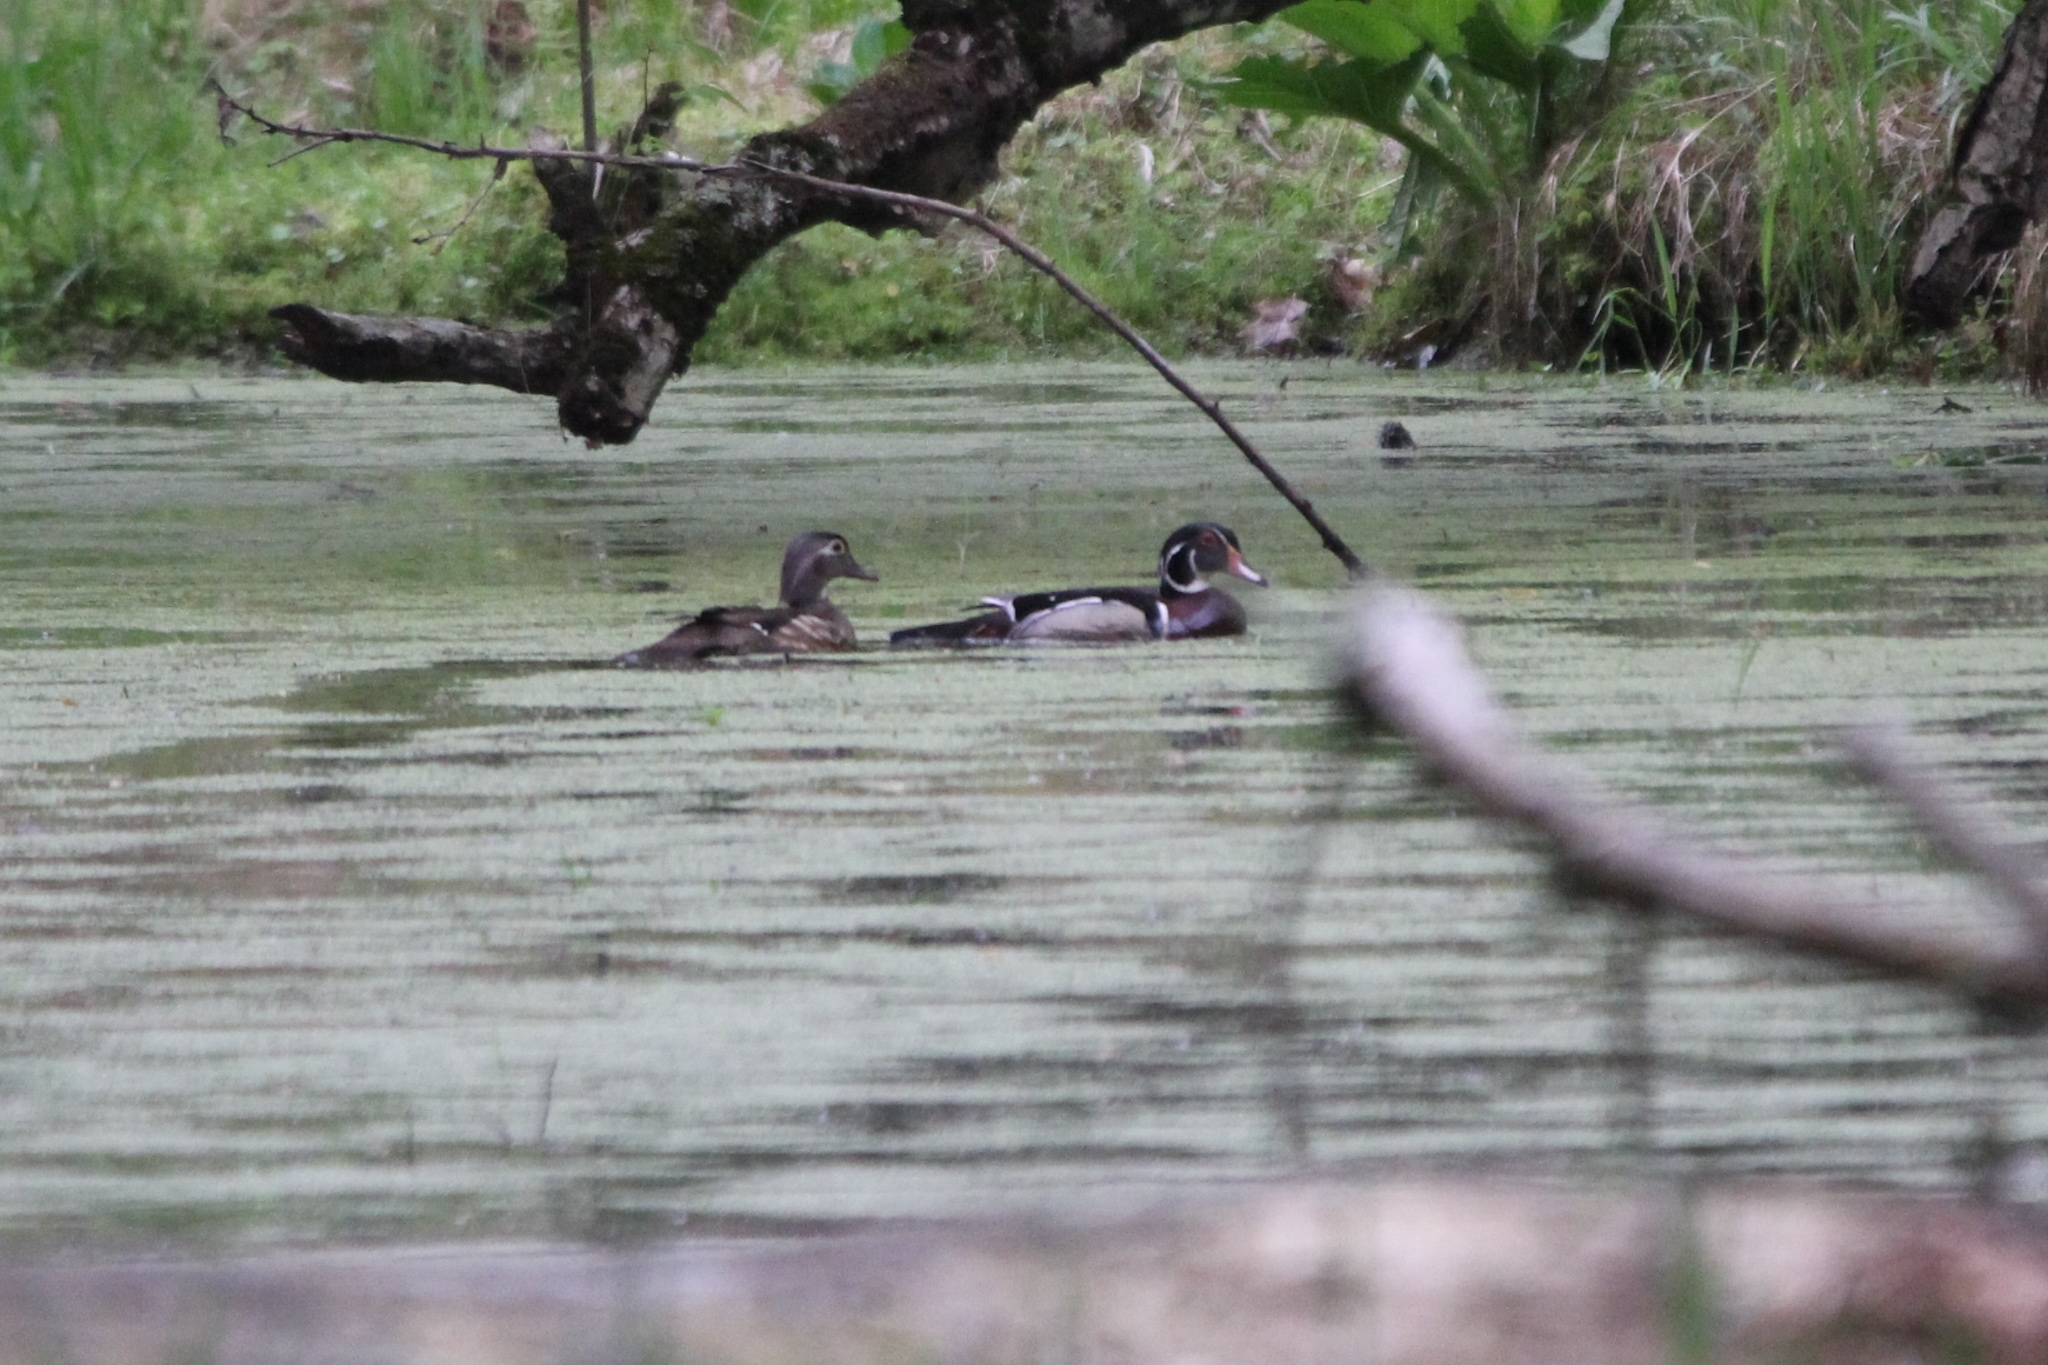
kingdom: Animalia
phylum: Chordata
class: Aves
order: Anseriformes
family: Anatidae
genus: Aix
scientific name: Aix sponsa
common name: Wood duck
